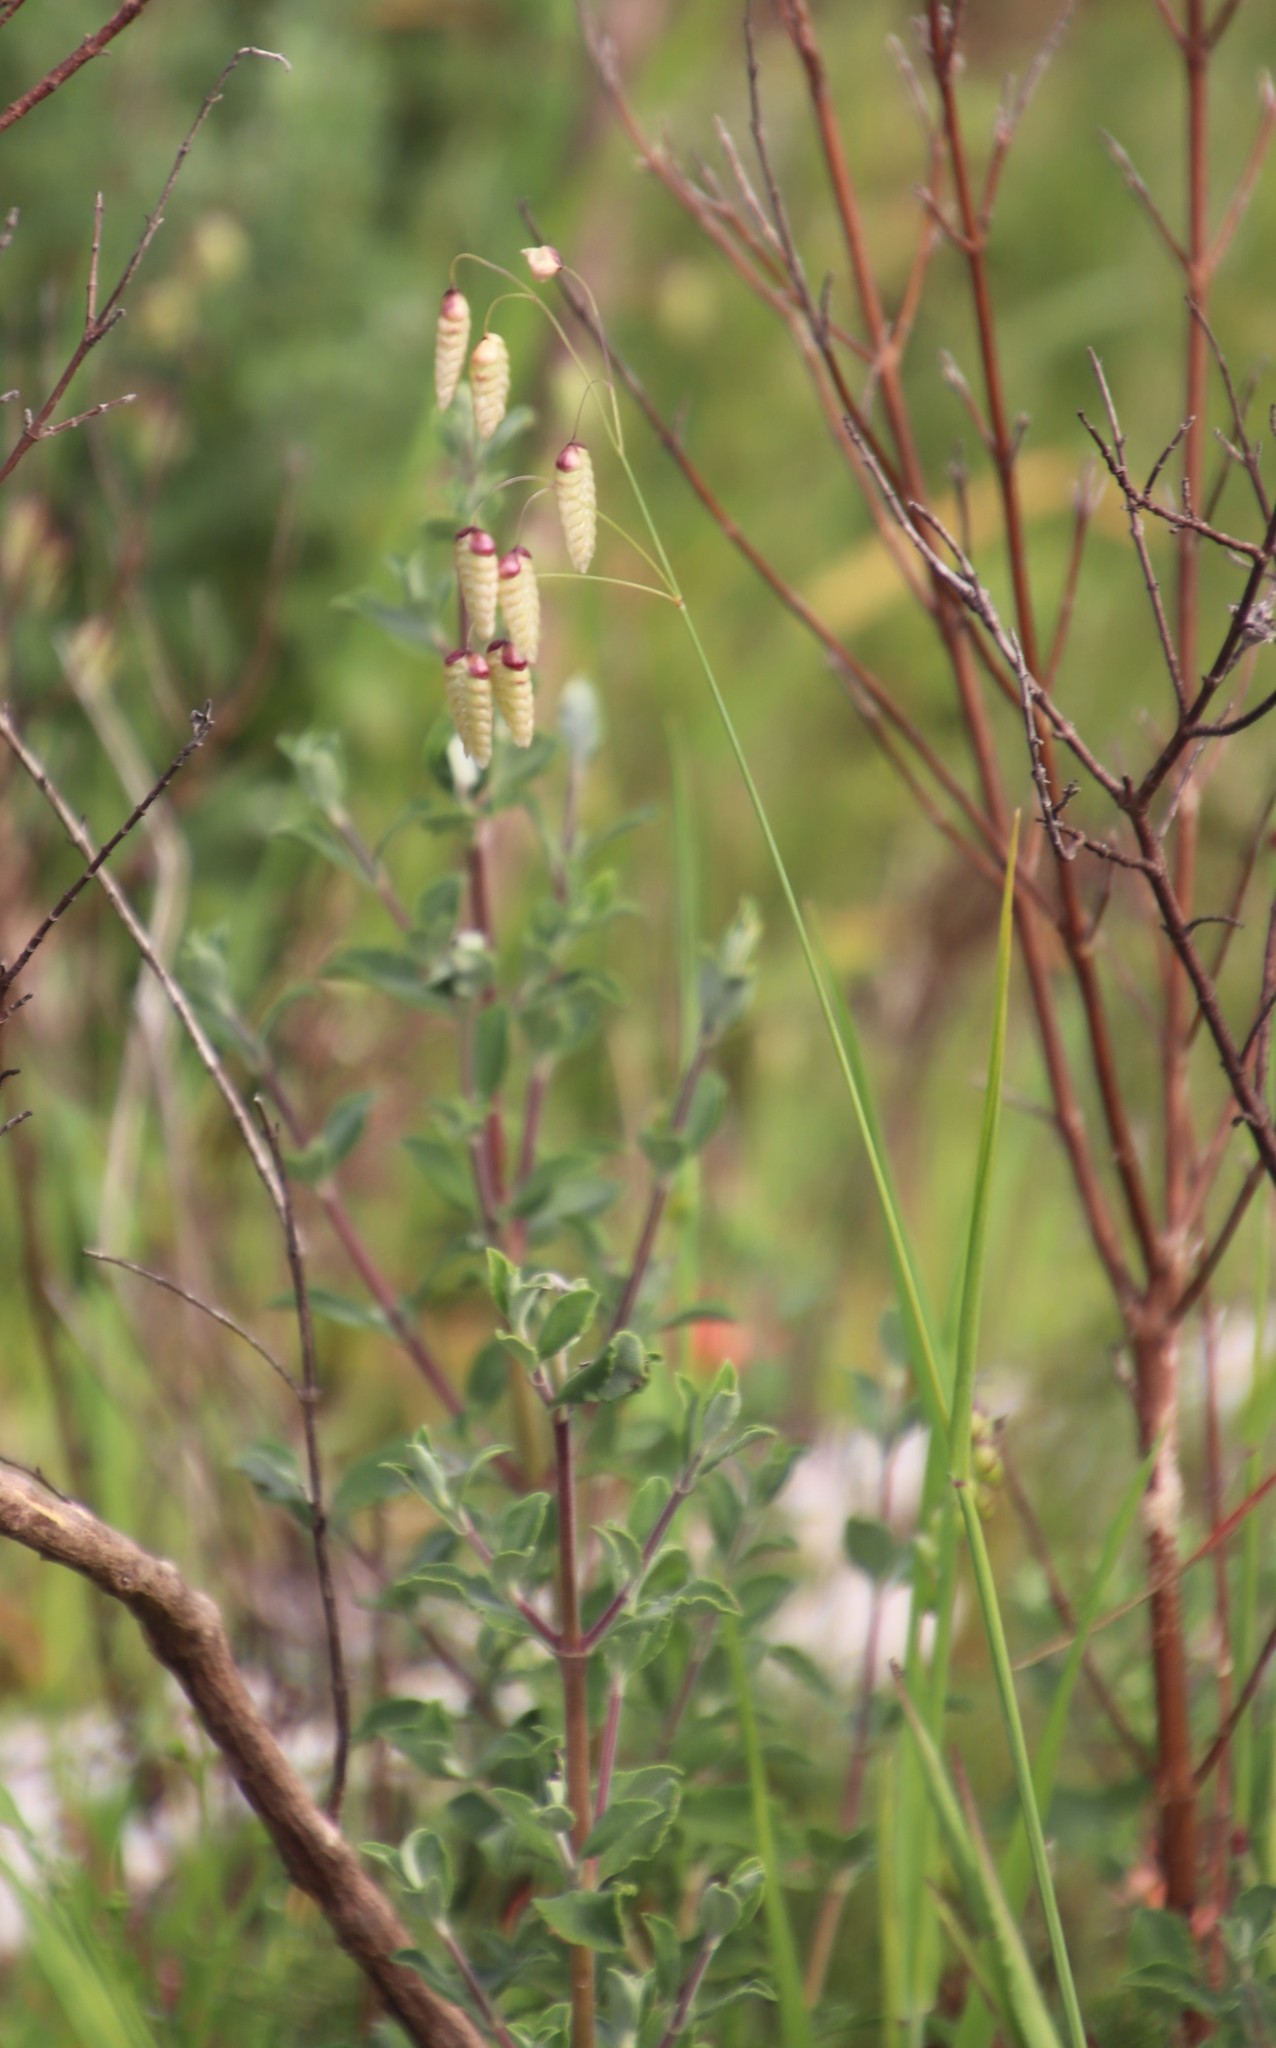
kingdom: Plantae
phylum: Tracheophyta
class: Magnoliopsida
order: Lamiales
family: Lamiaceae
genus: Salvia
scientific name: Salvia africana
